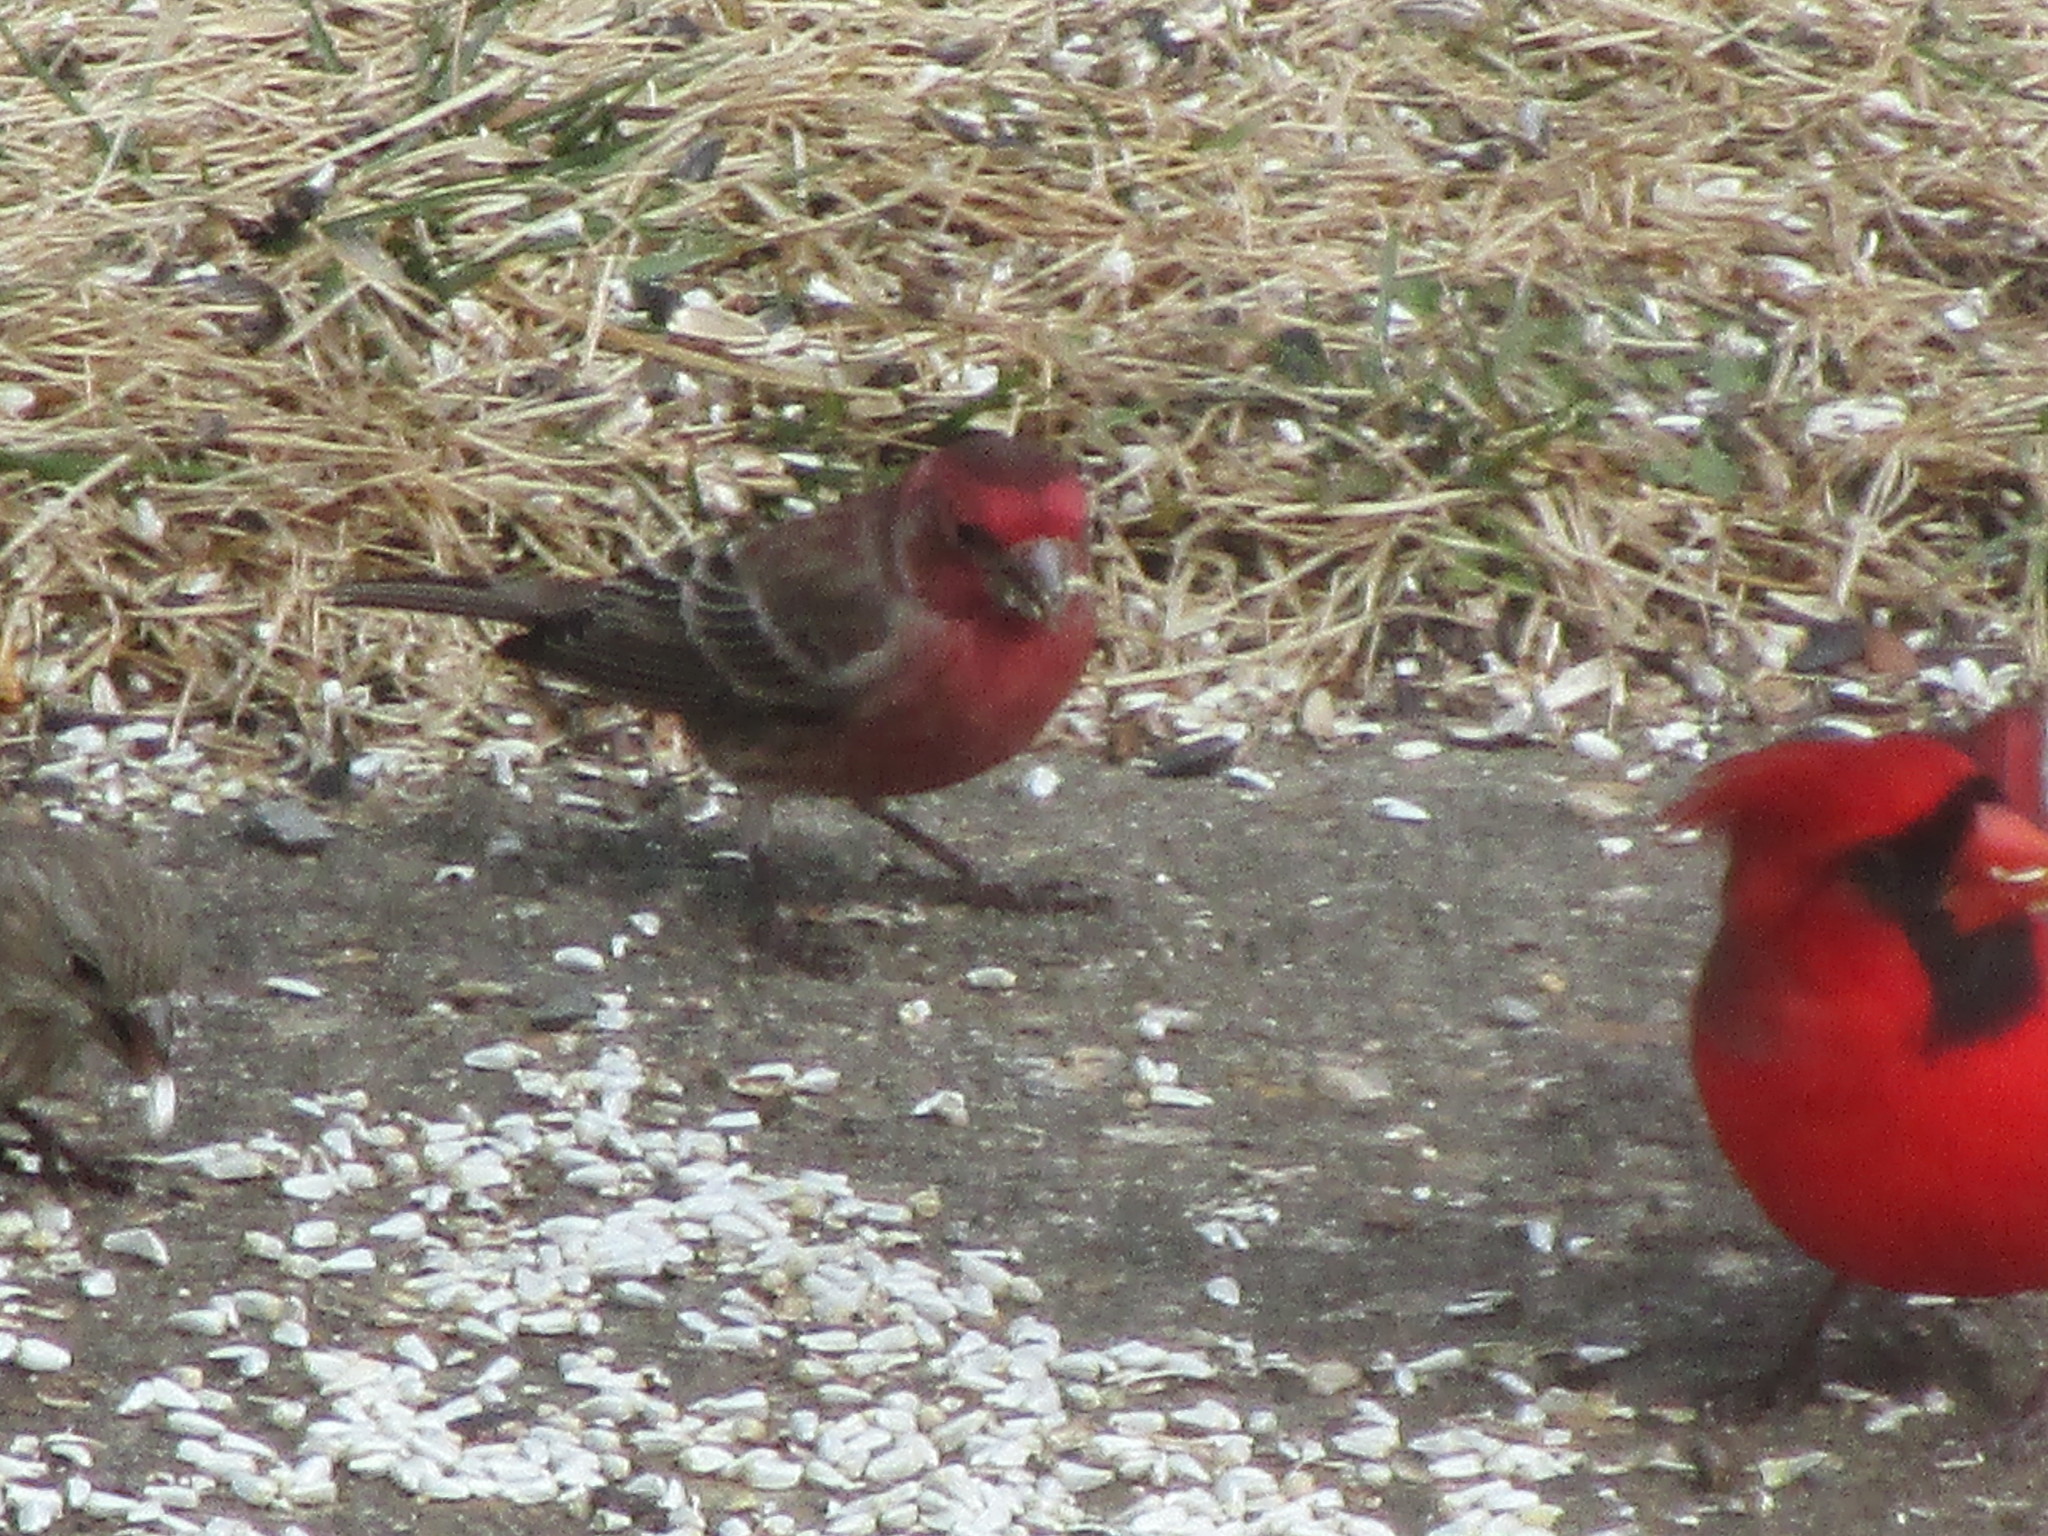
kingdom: Animalia
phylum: Chordata
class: Aves
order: Passeriformes
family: Fringillidae
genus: Haemorhous
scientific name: Haemorhous mexicanus
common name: House finch
